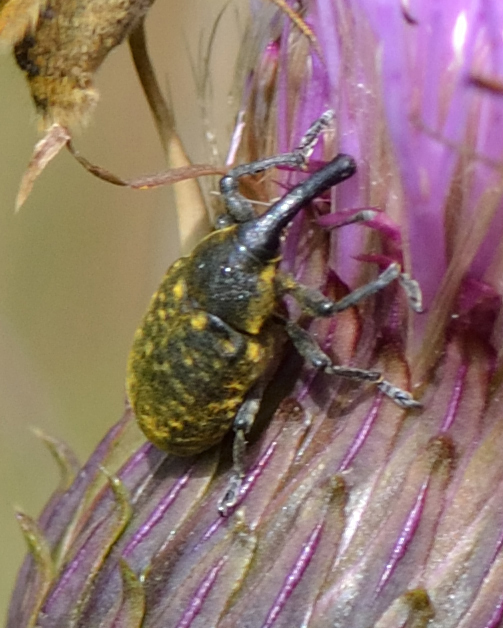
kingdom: Animalia
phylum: Arthropoda
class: Insecta
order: Coleoptera
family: Curculionidae
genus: Larinus
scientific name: Larinus sturnus
